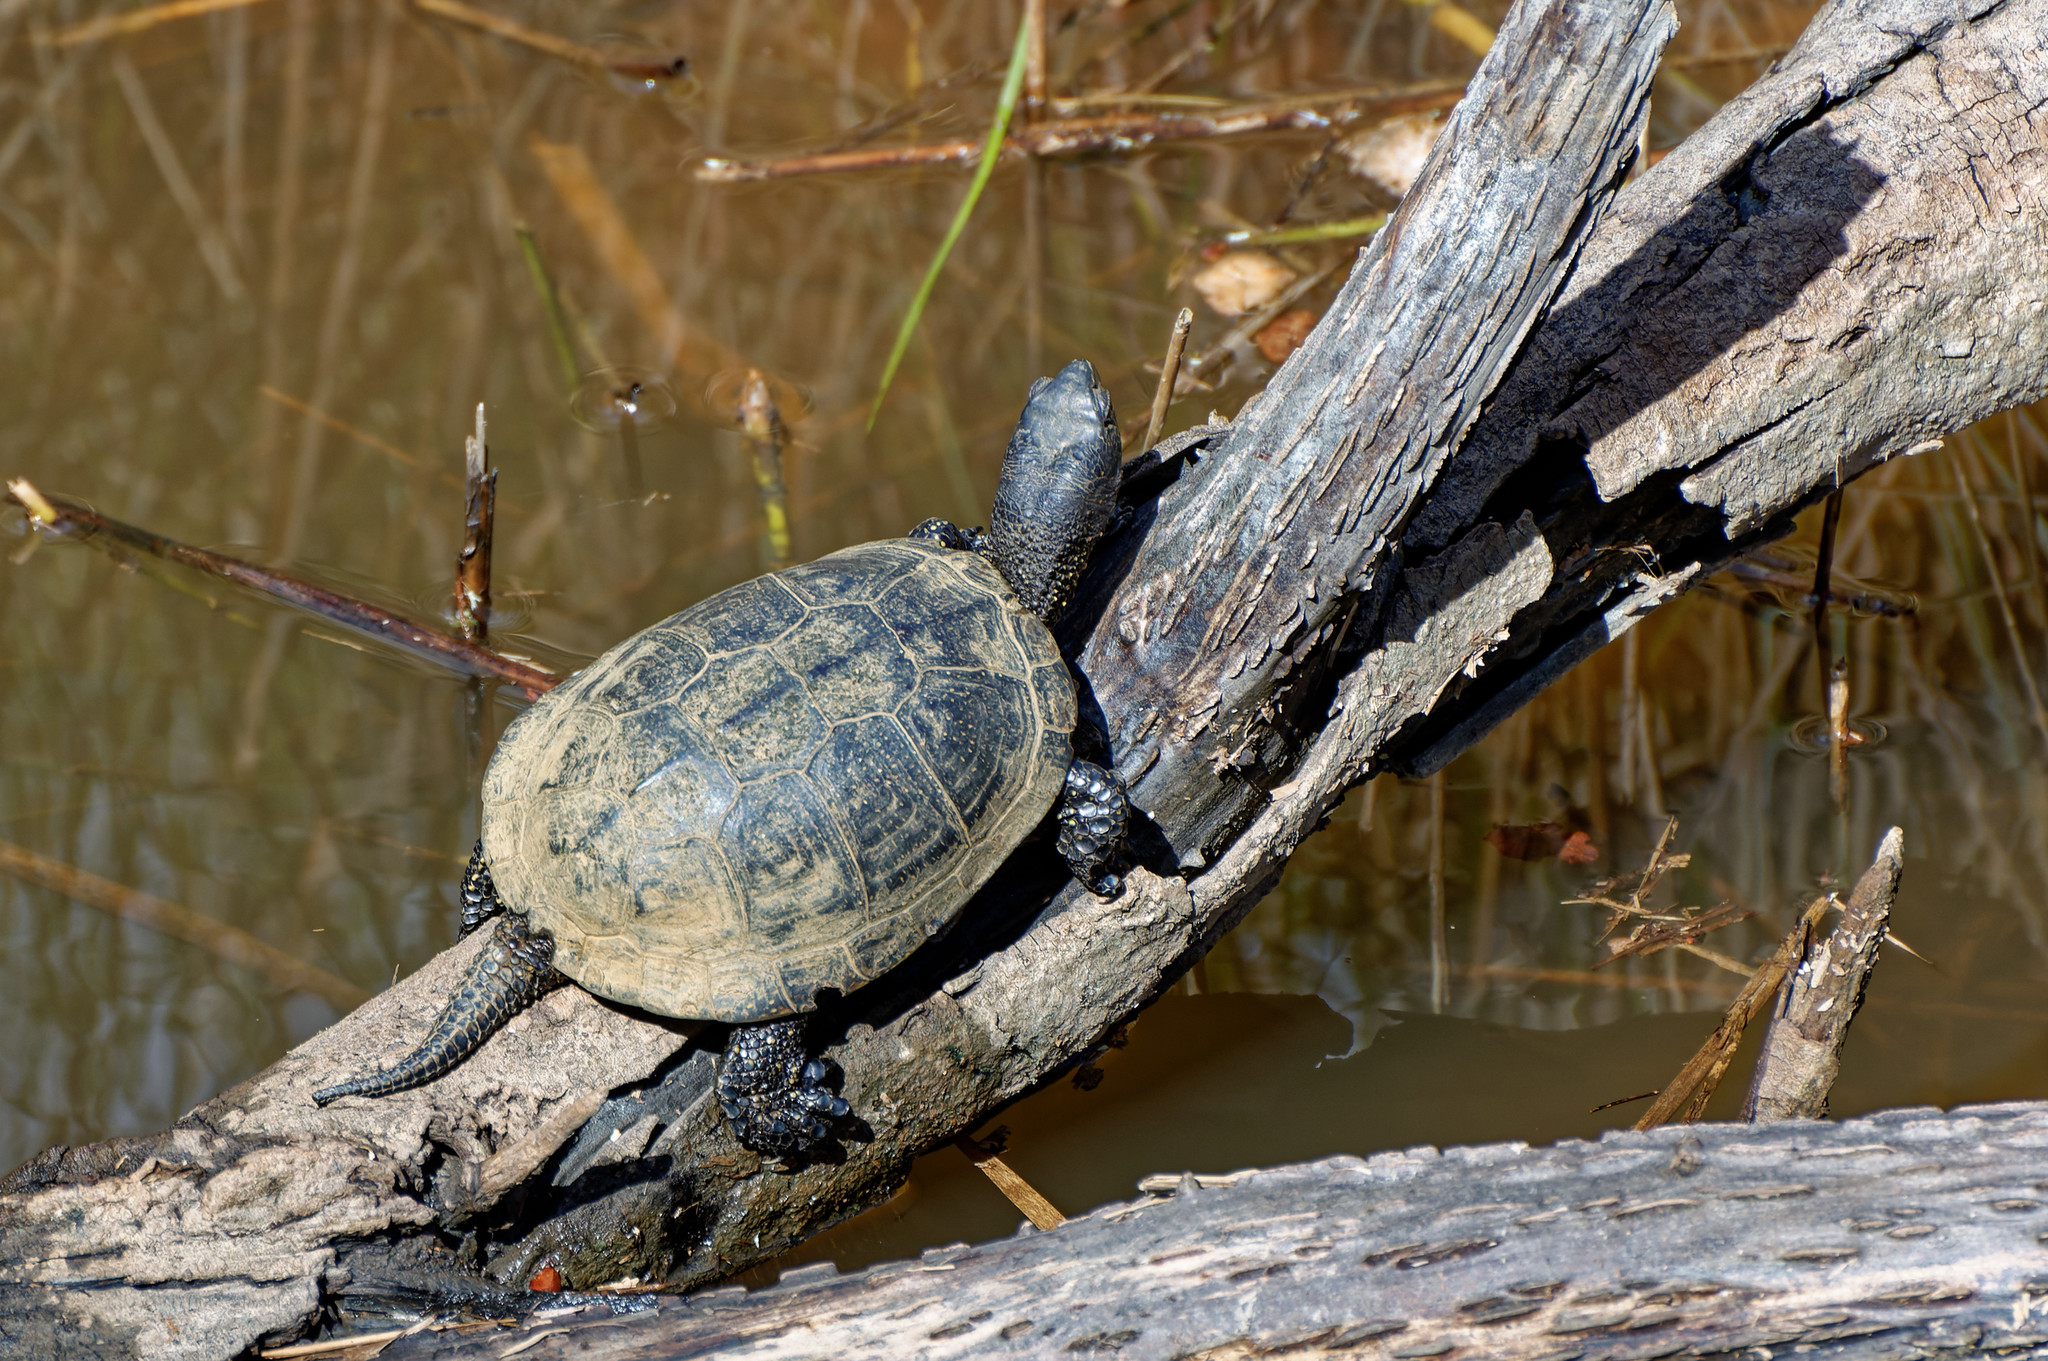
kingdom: Animalia
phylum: Chordata
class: Testudines
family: Emydidae
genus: Emys
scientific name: Emys orbicularis
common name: European pond turtle
